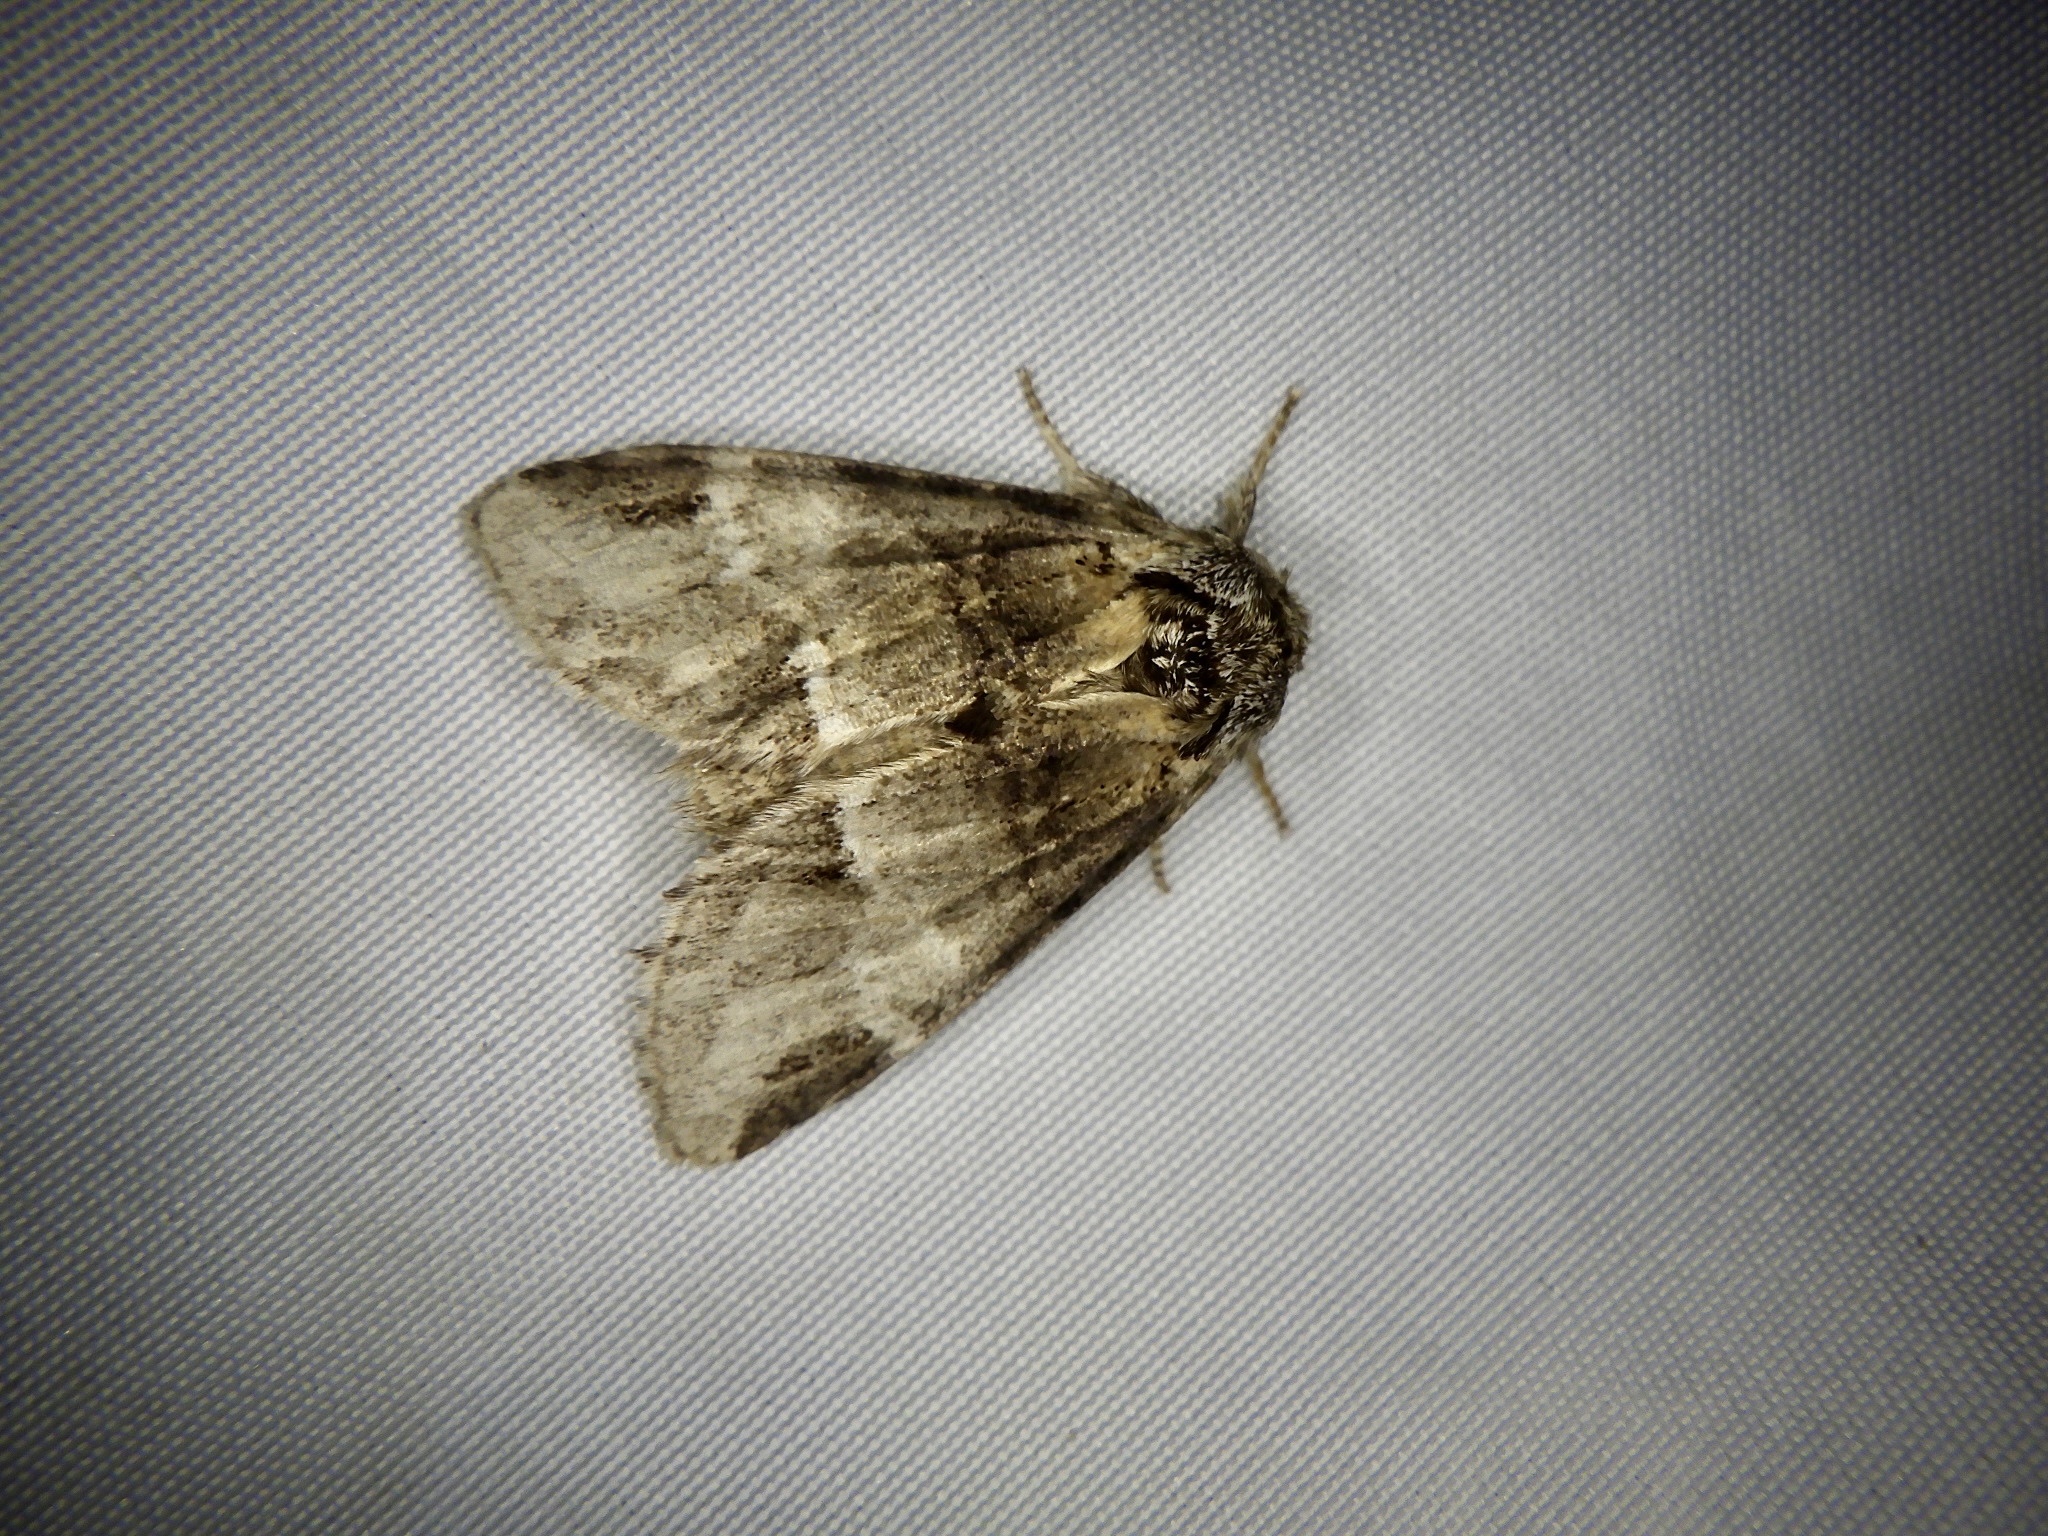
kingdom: Animalia
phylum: Arthropoda
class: Insecta
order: Lepidoptera
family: Notodontidae
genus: Drymonia
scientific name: Drymonia japonica
